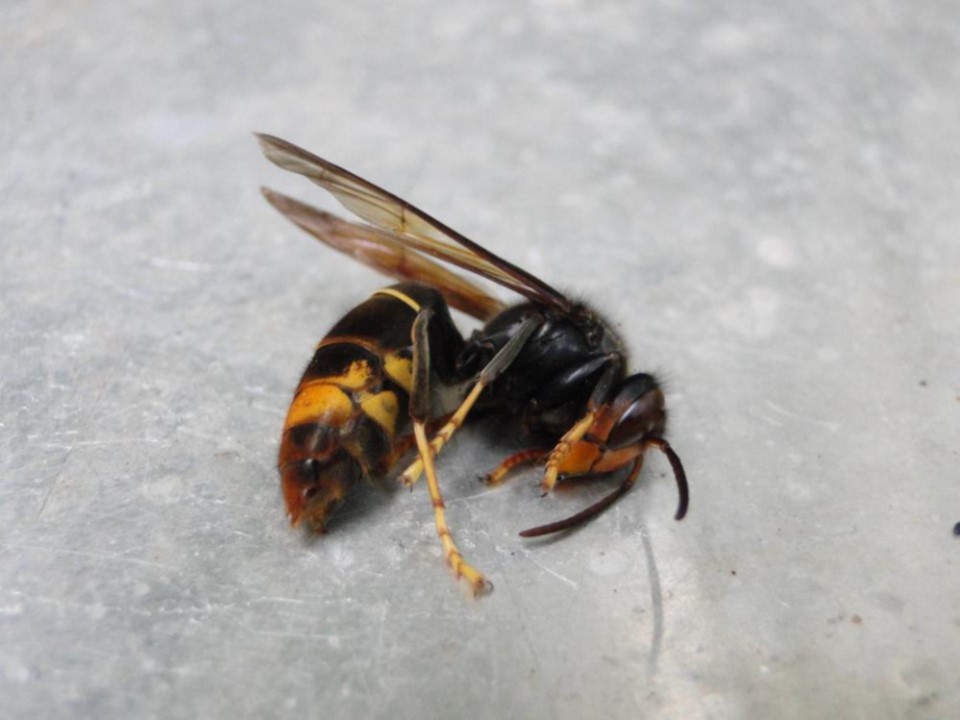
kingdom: Animalia
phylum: Arthropoda
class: Insecta
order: Hymenoptera
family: Vespidae
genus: Vespa
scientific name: Vespa velutina
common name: Asian hornet
